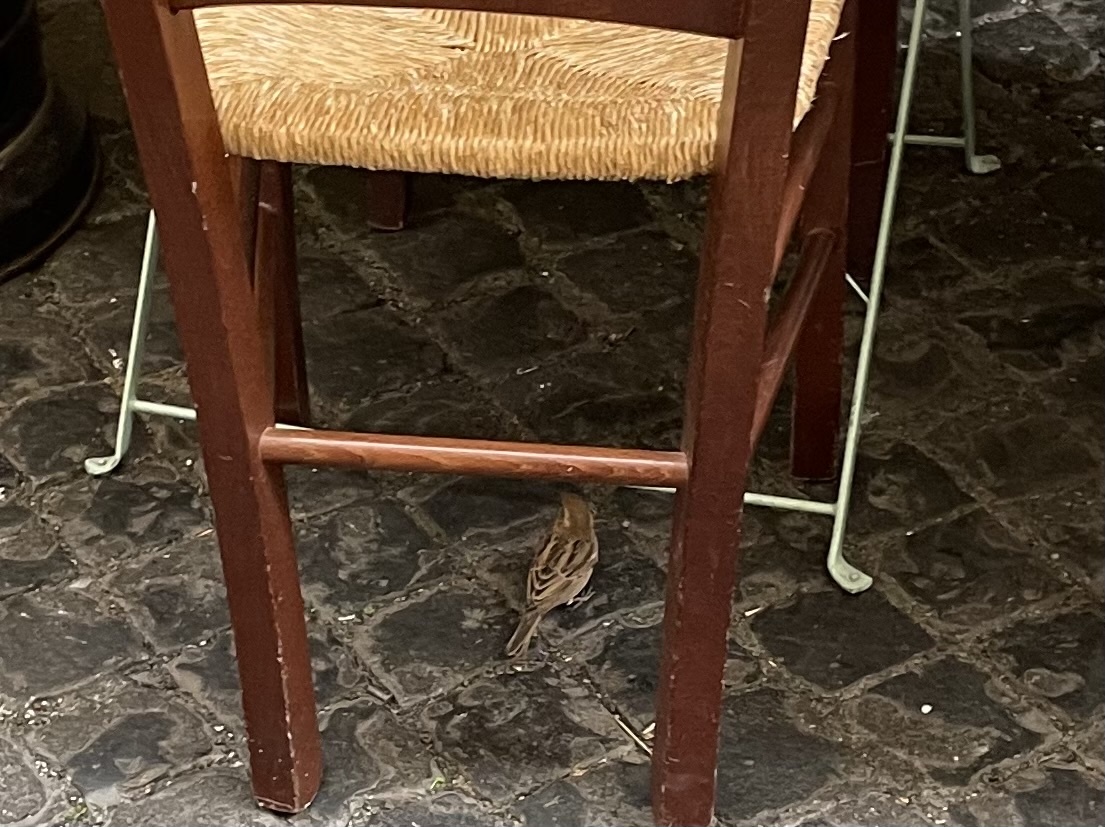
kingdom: Animalia
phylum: Chordata
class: Aves
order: Passeriformes
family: Passeridae
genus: Passer
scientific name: Passer italiae
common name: Italian sparrow
